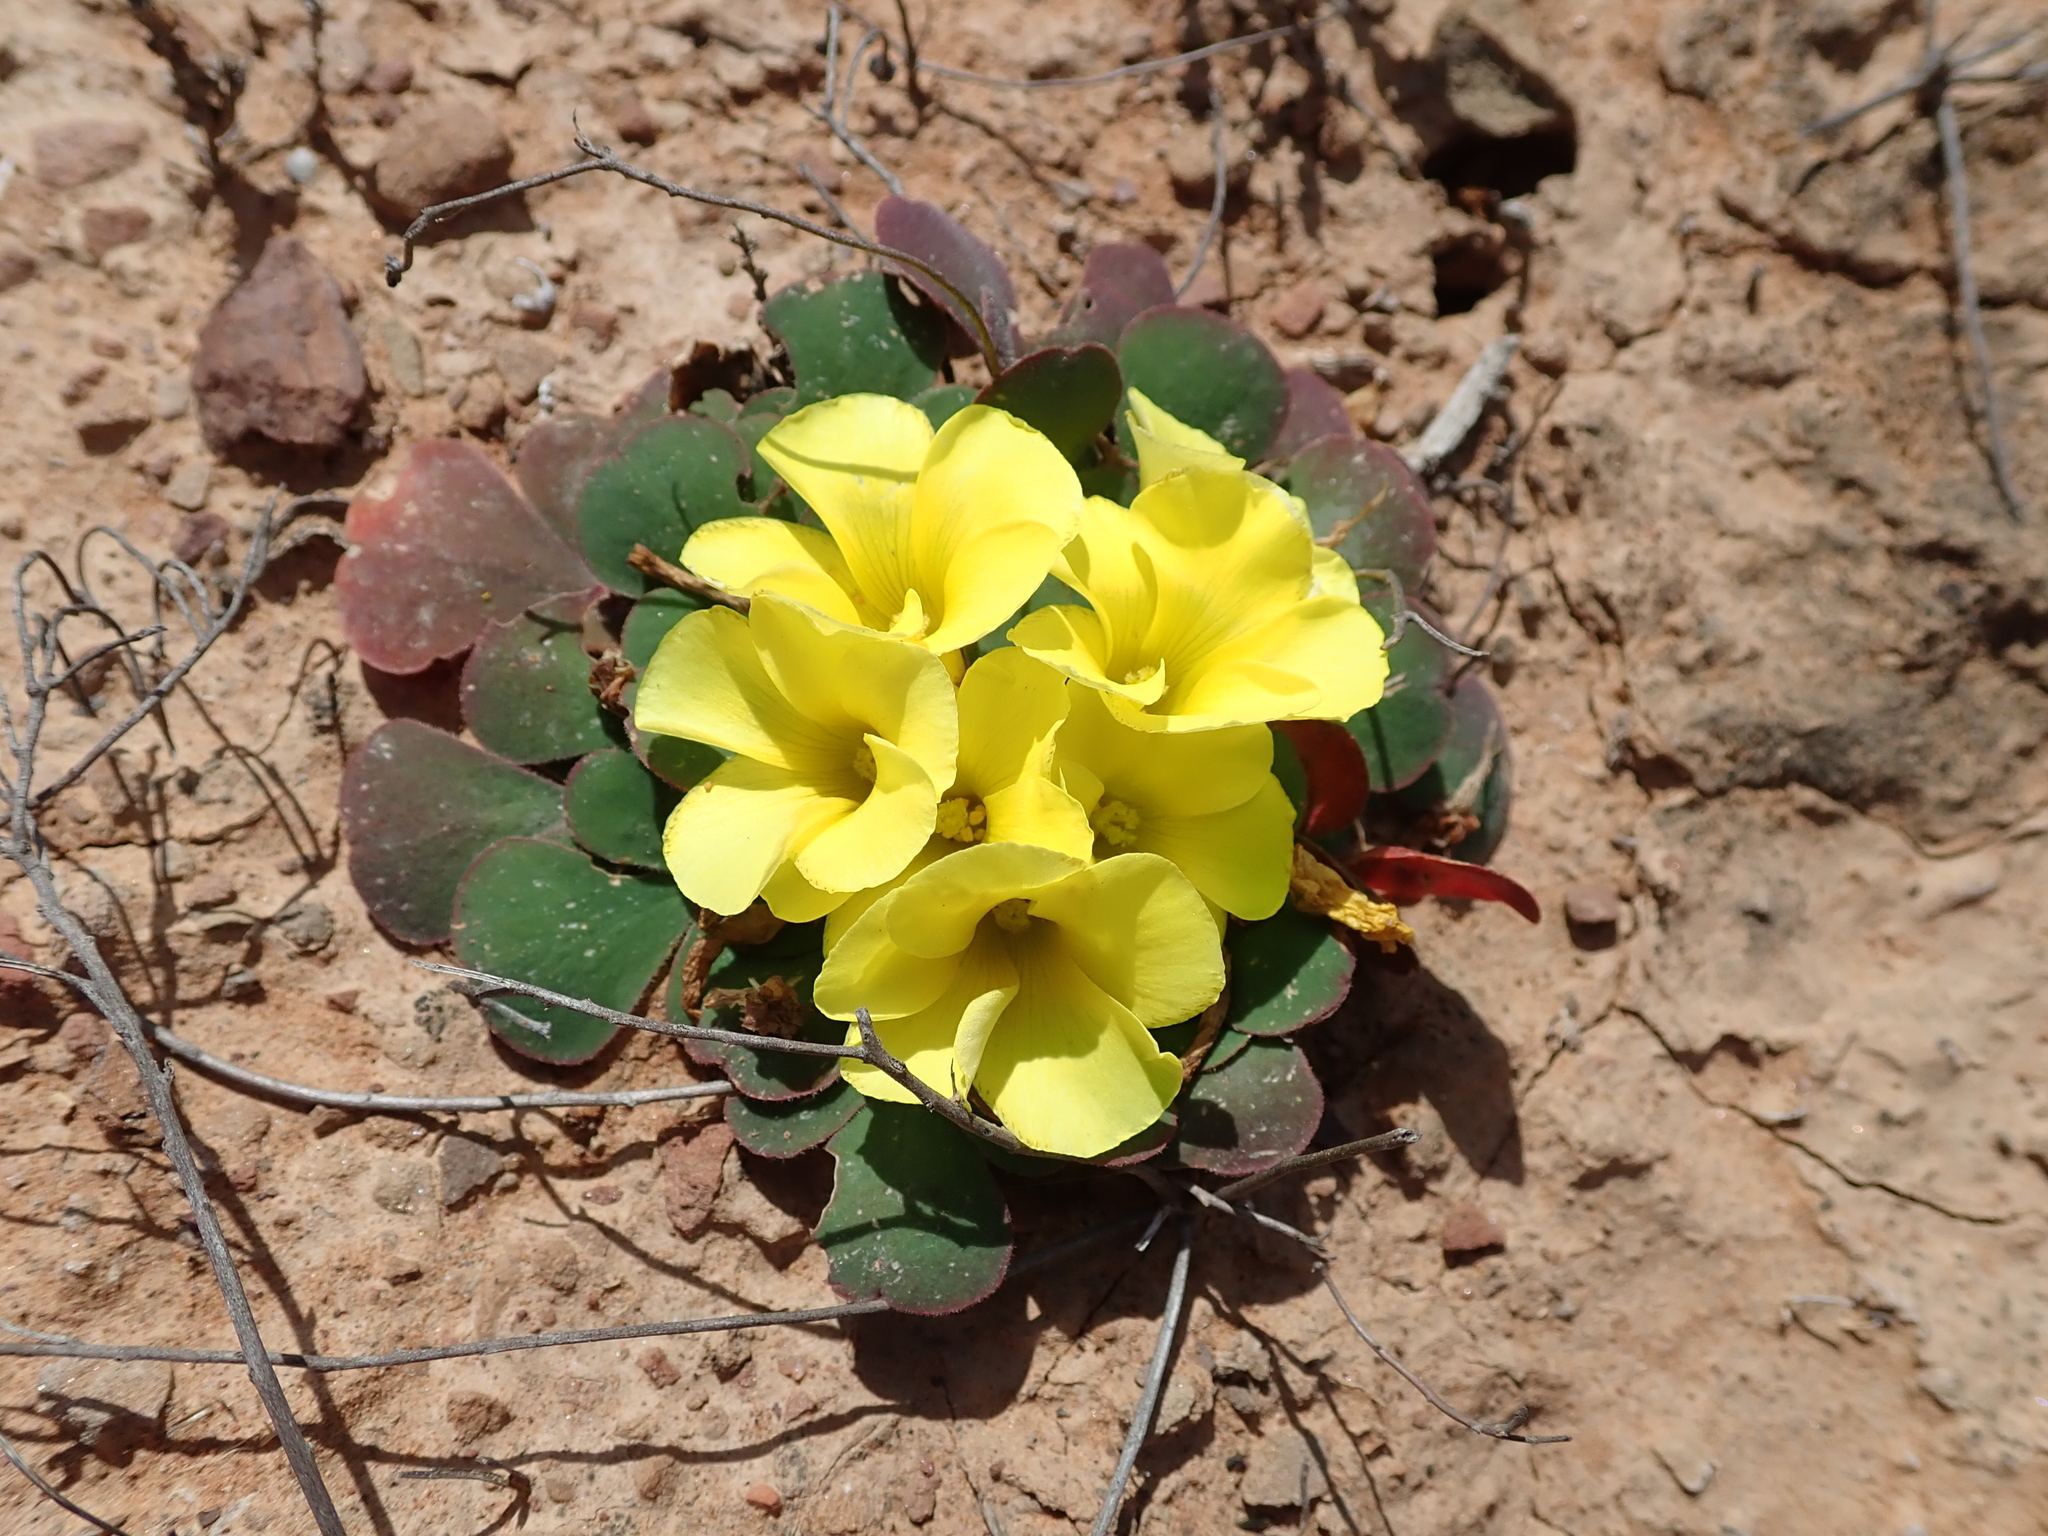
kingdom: Plantae
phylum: Tracheophyta
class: Magnoliopsida
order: Oxalidales
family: Oxalidaceae
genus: Oxalis
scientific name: Oxalis purpurea
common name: Purple woodsorrel
